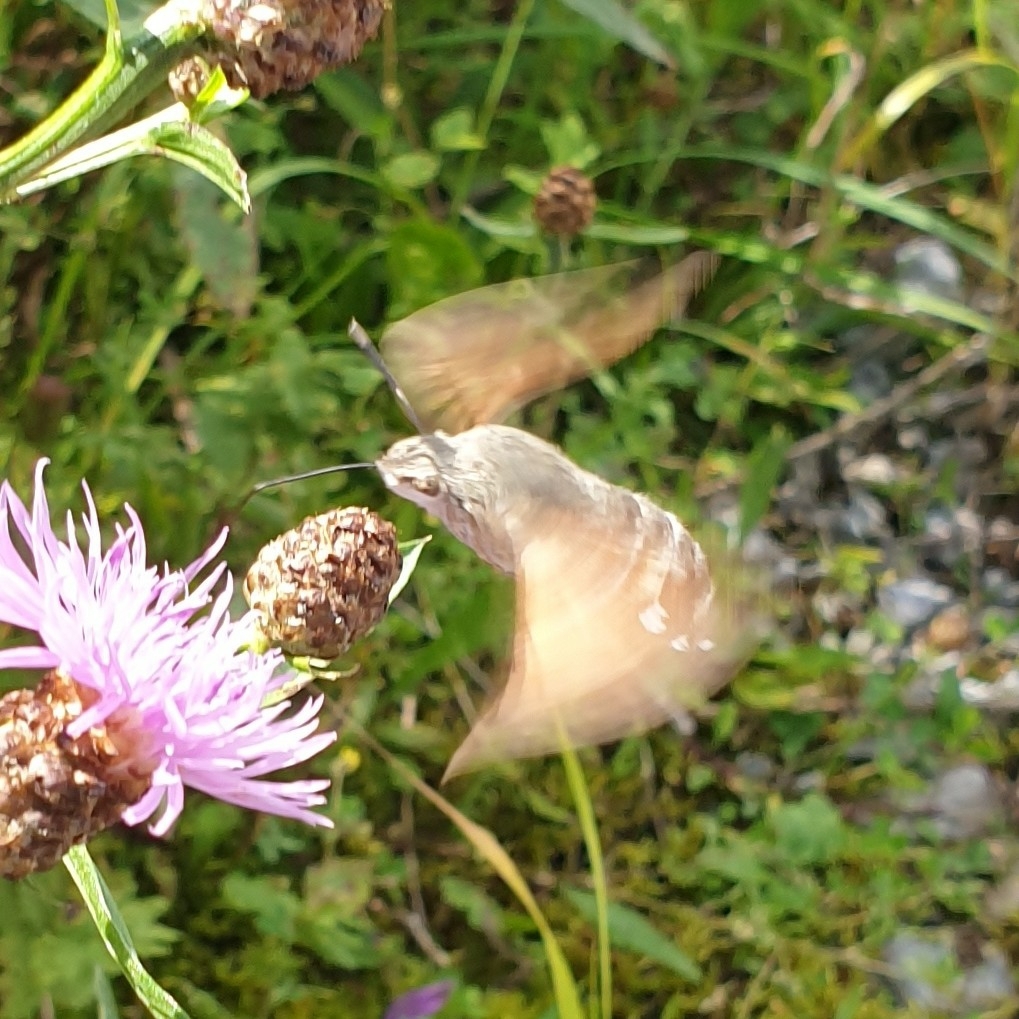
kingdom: Animalia
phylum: Arthropoda
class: Insecta
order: Lepidoptera
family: Sphingidae
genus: Macroglossum
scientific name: Macroglossum stellatarum
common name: Humming-bird hawk-moth
